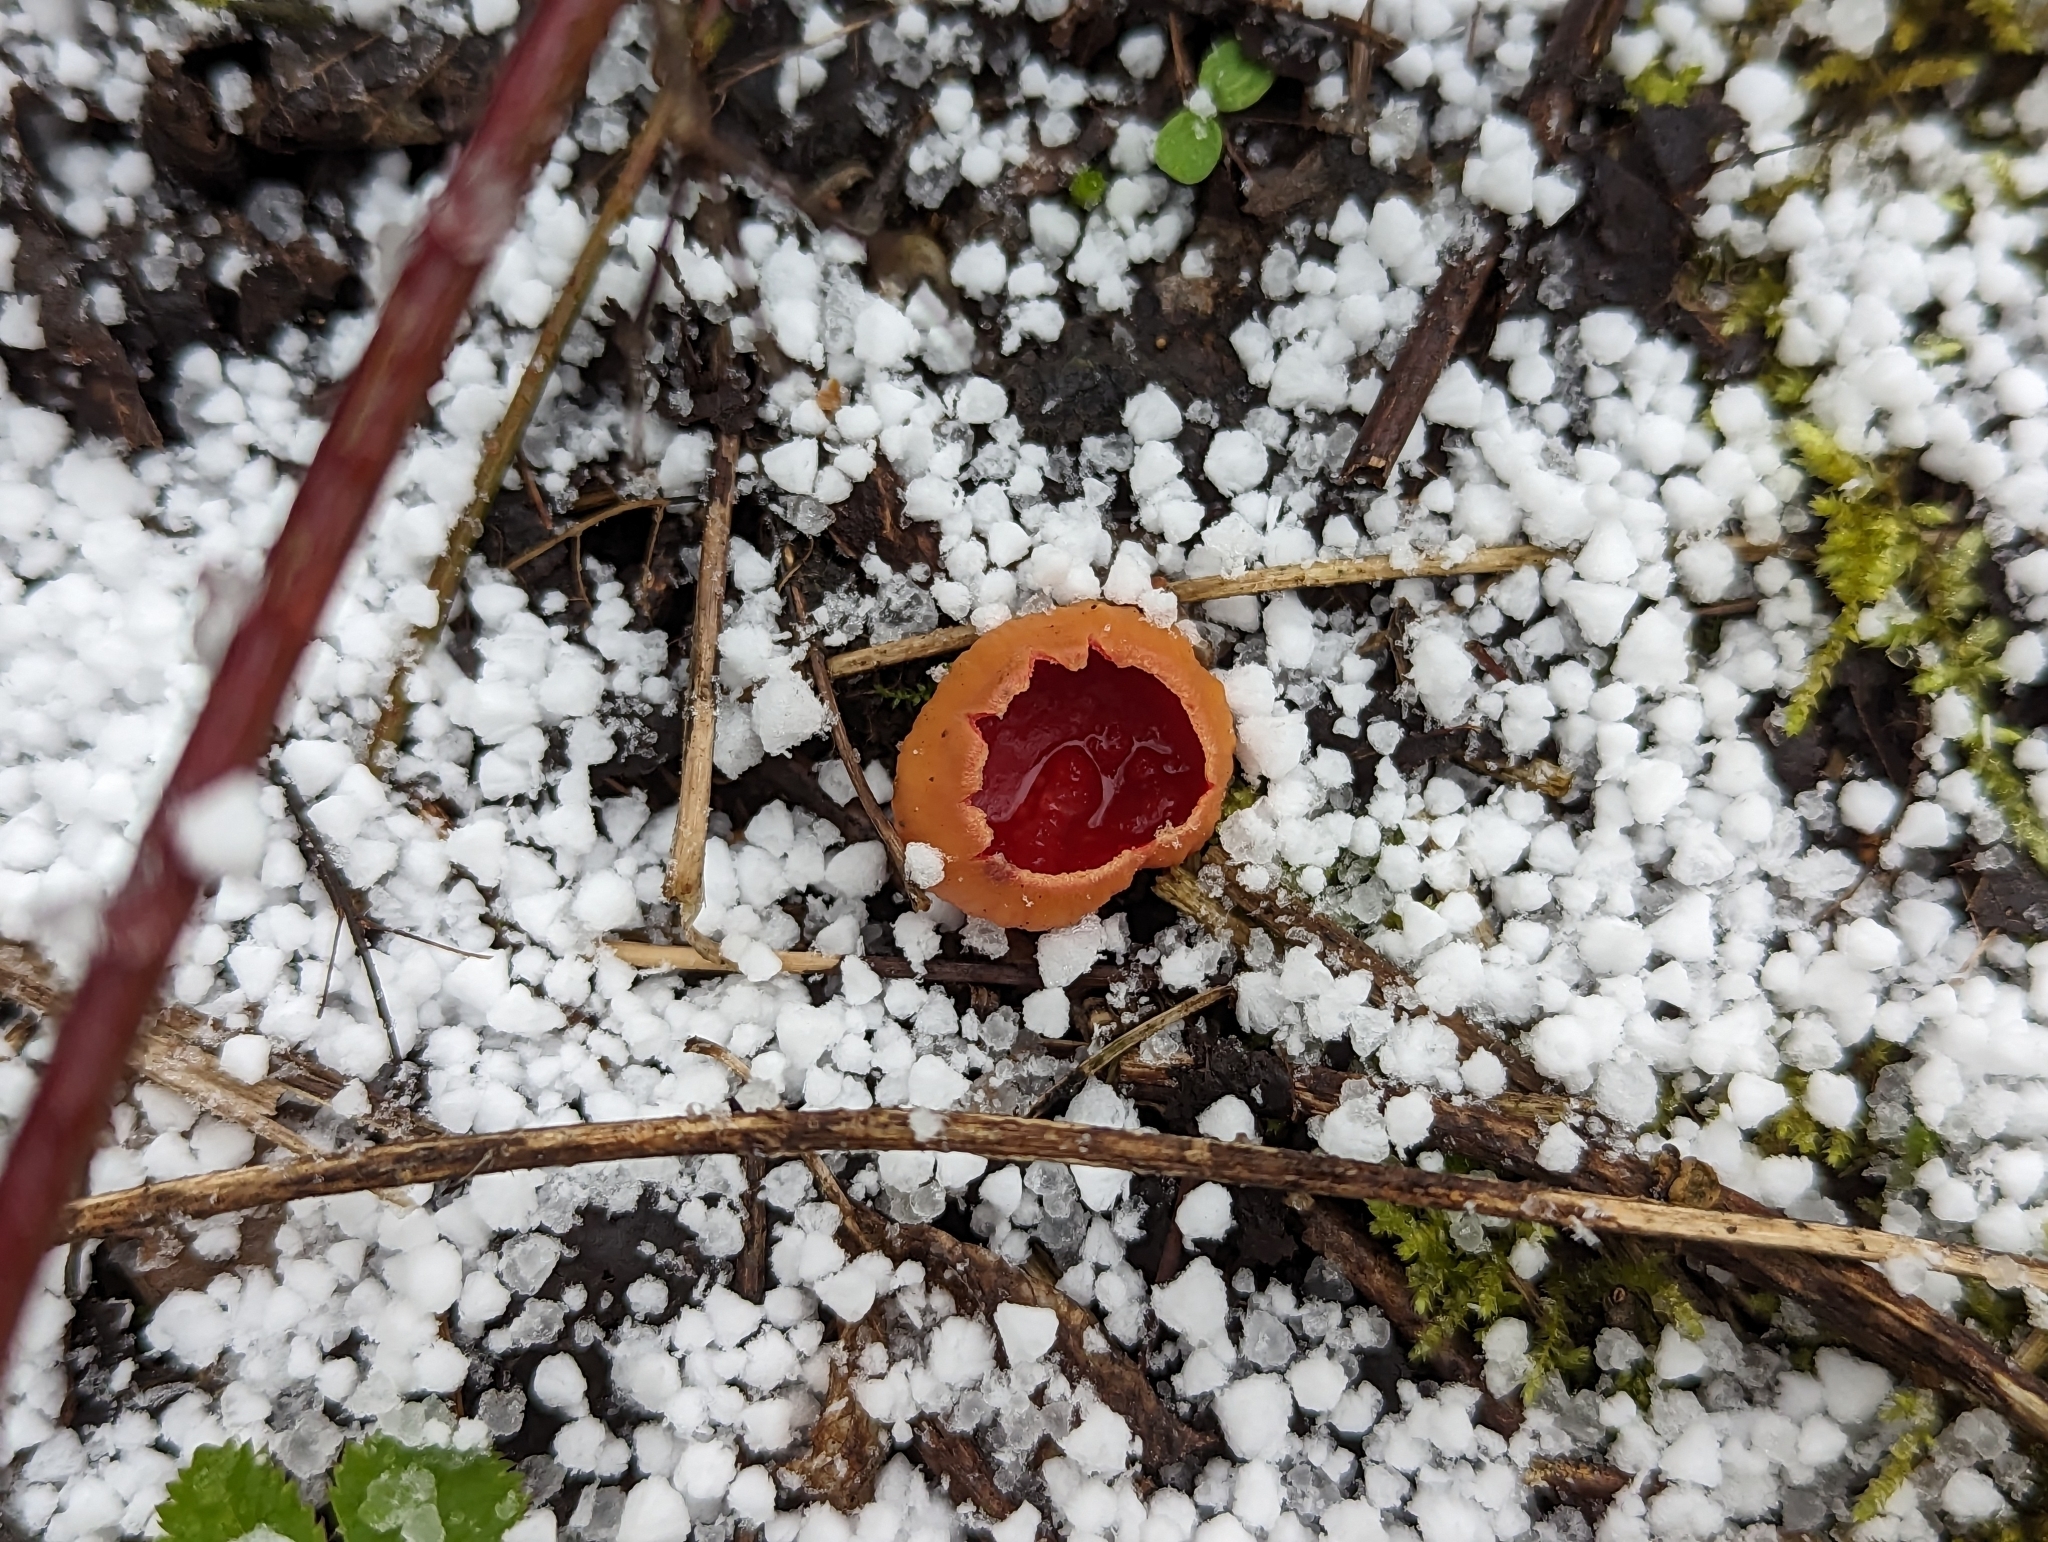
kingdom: Fungi
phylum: Ascomycota
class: Pezizomycetes
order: Pezizales
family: Sarcoscyphaceae
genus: Sarcoscypha
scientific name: Sarcoscypha
